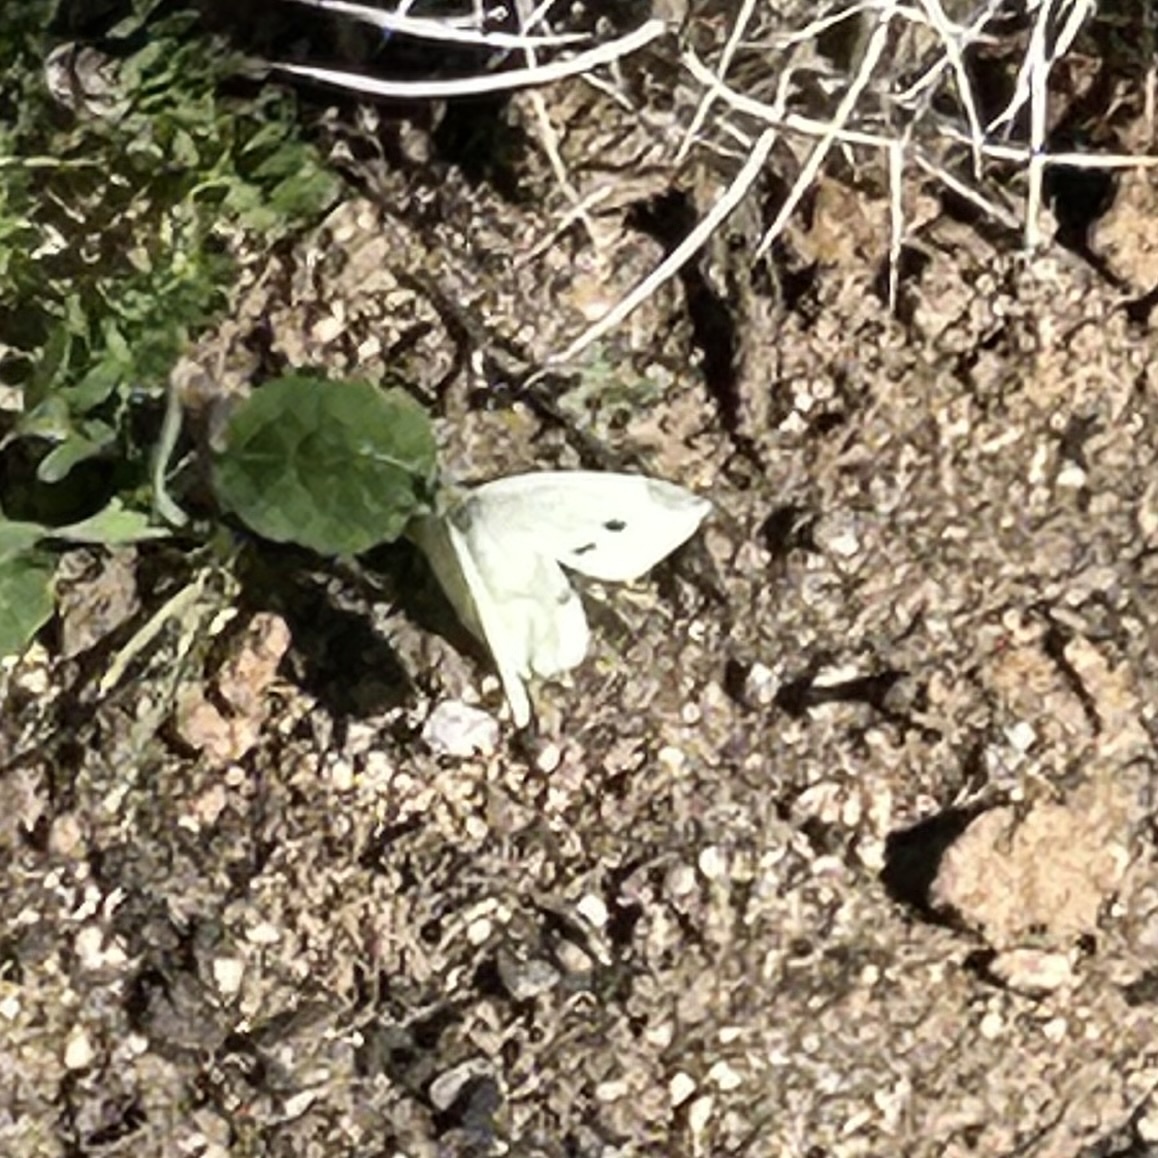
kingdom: Animalia
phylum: Arthropoda
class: Insecta
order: Lepidoptera
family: Pieridae
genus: Pieris
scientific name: Pieris rapae
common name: Small white
